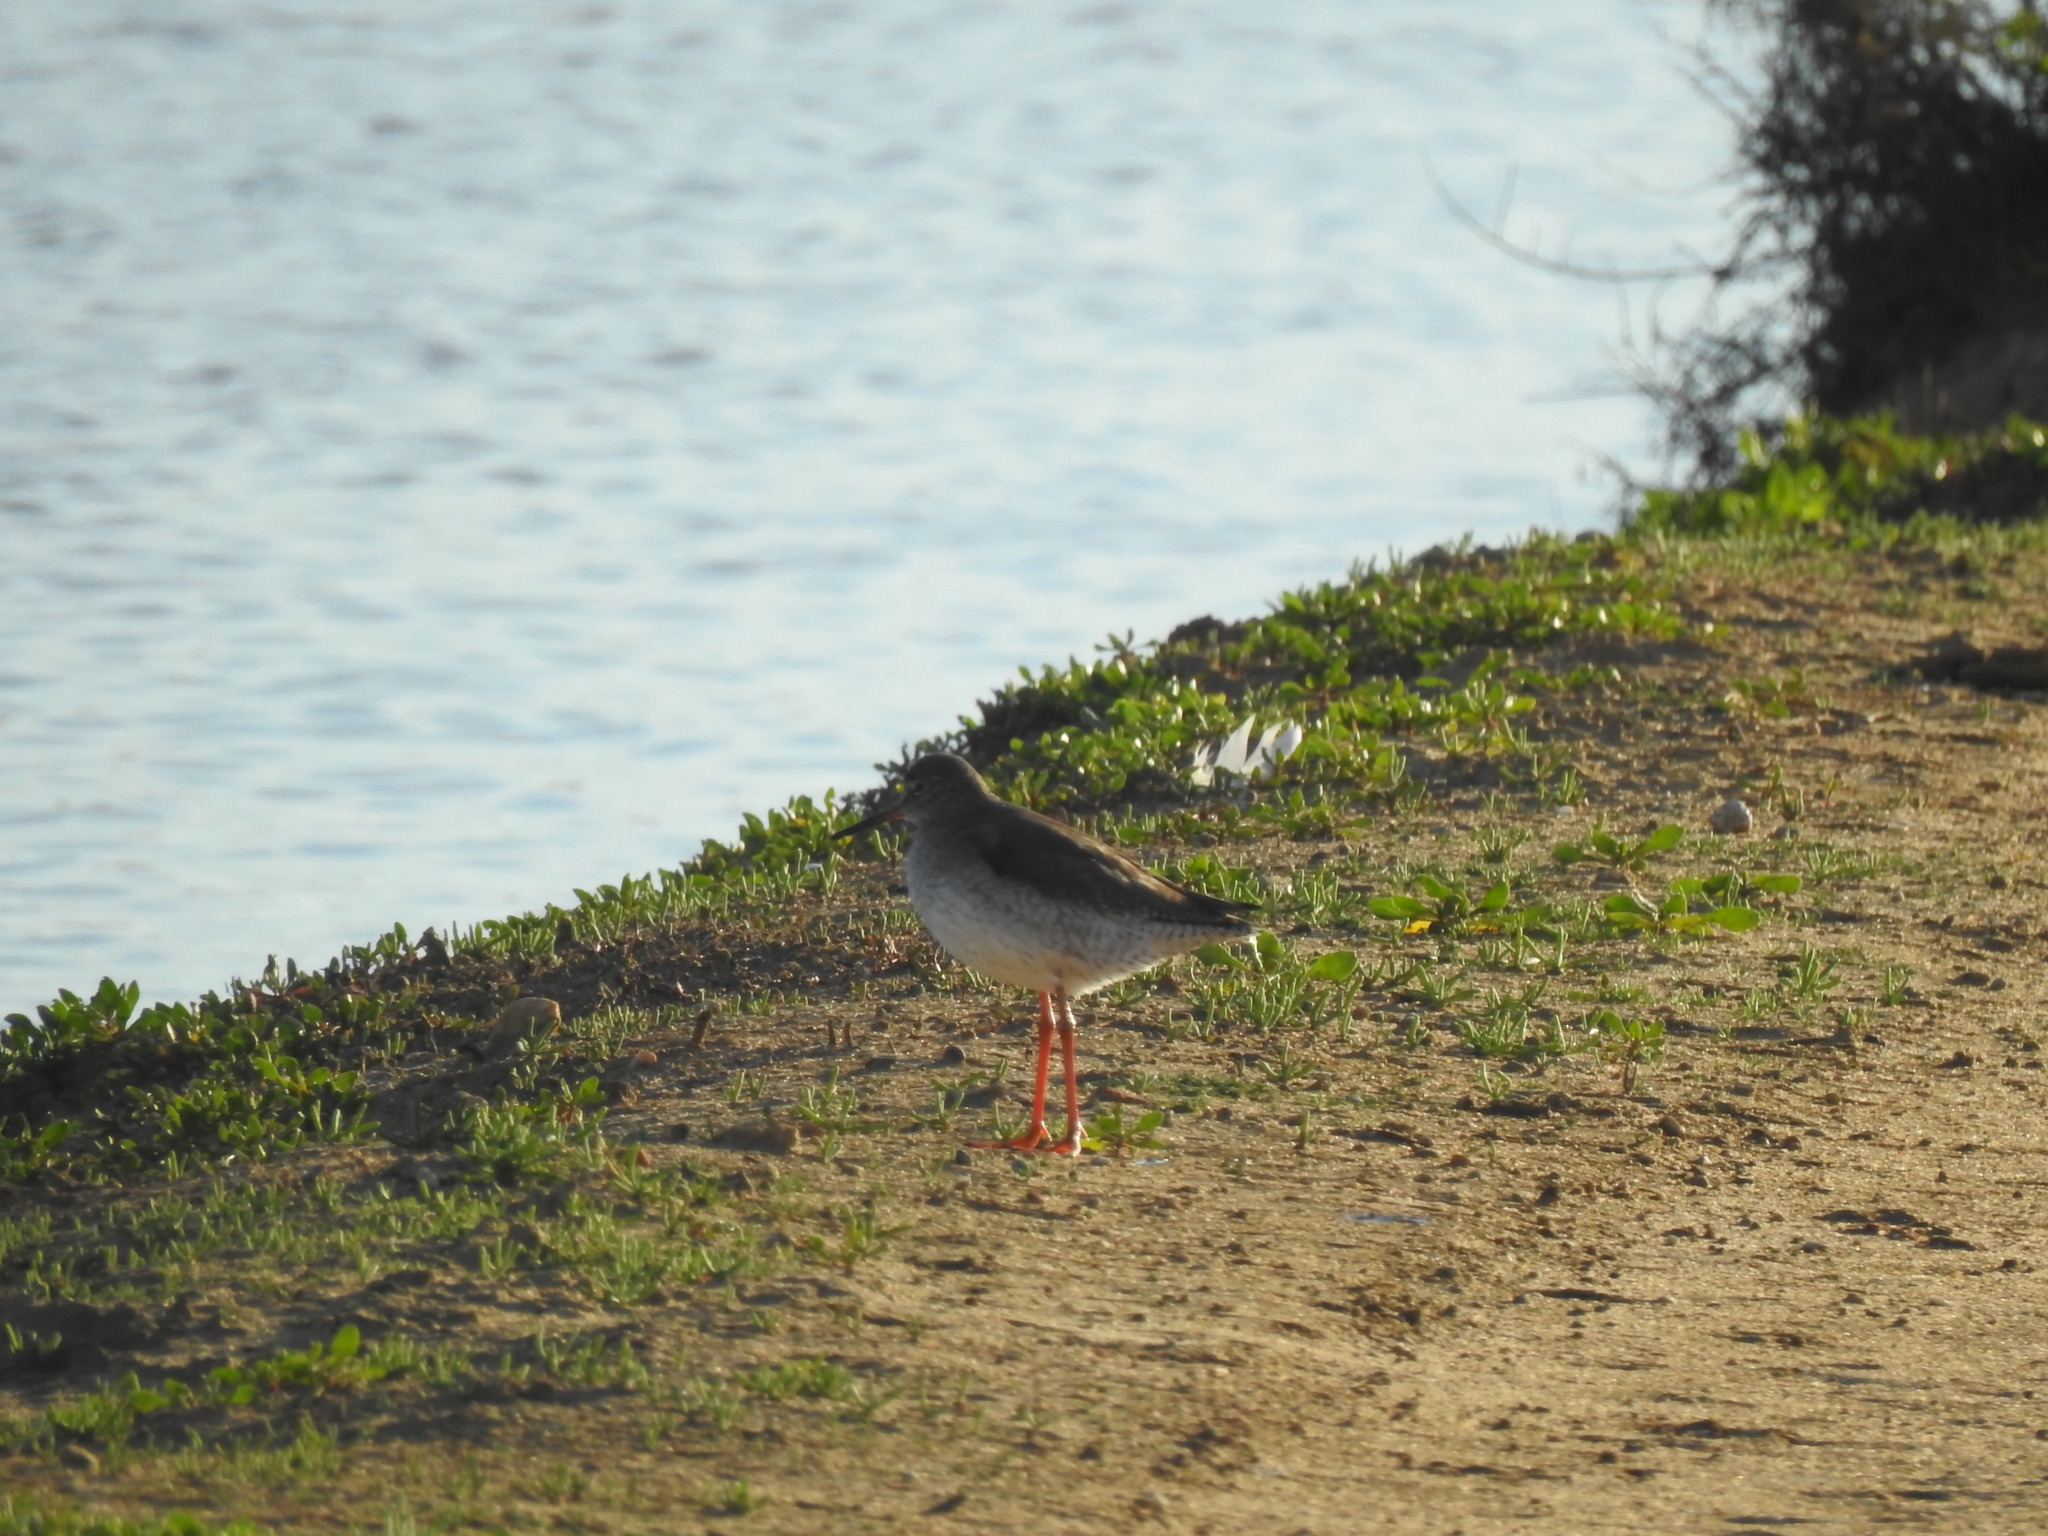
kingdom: Animalia
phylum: Chordata
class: Aves
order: Charadriiformes
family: Scolopacidae
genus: Tringa
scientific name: Tringa totanus
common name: Common redshank
